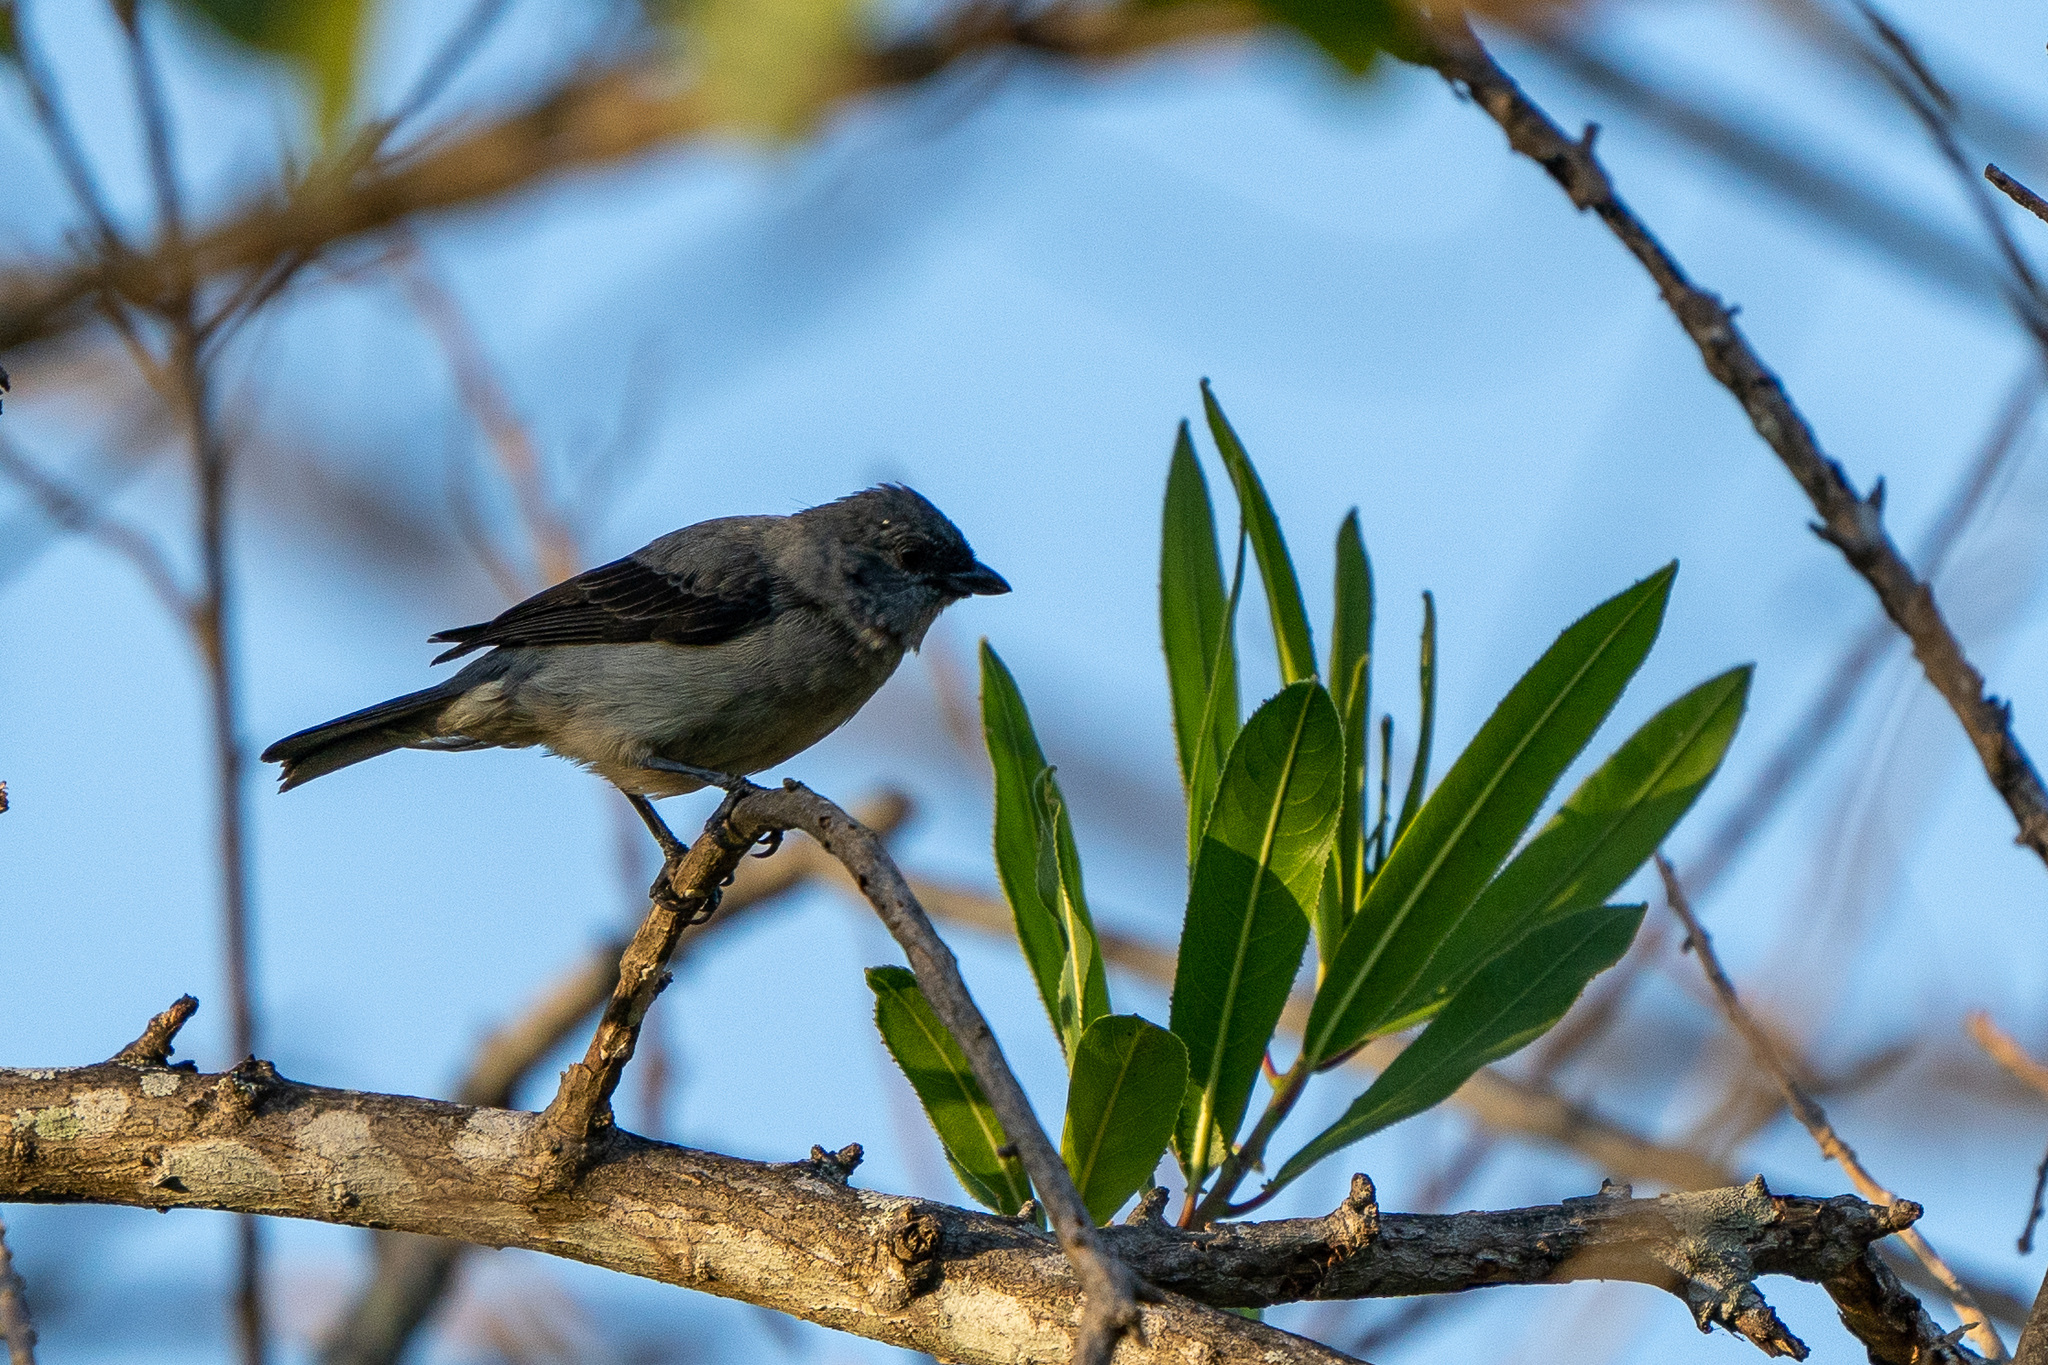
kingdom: Animalia
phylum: Chordata
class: Aves
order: Passeriformes
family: Thraupidae
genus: Tangara
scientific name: Tangara inornata
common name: Plain-colored tanager
